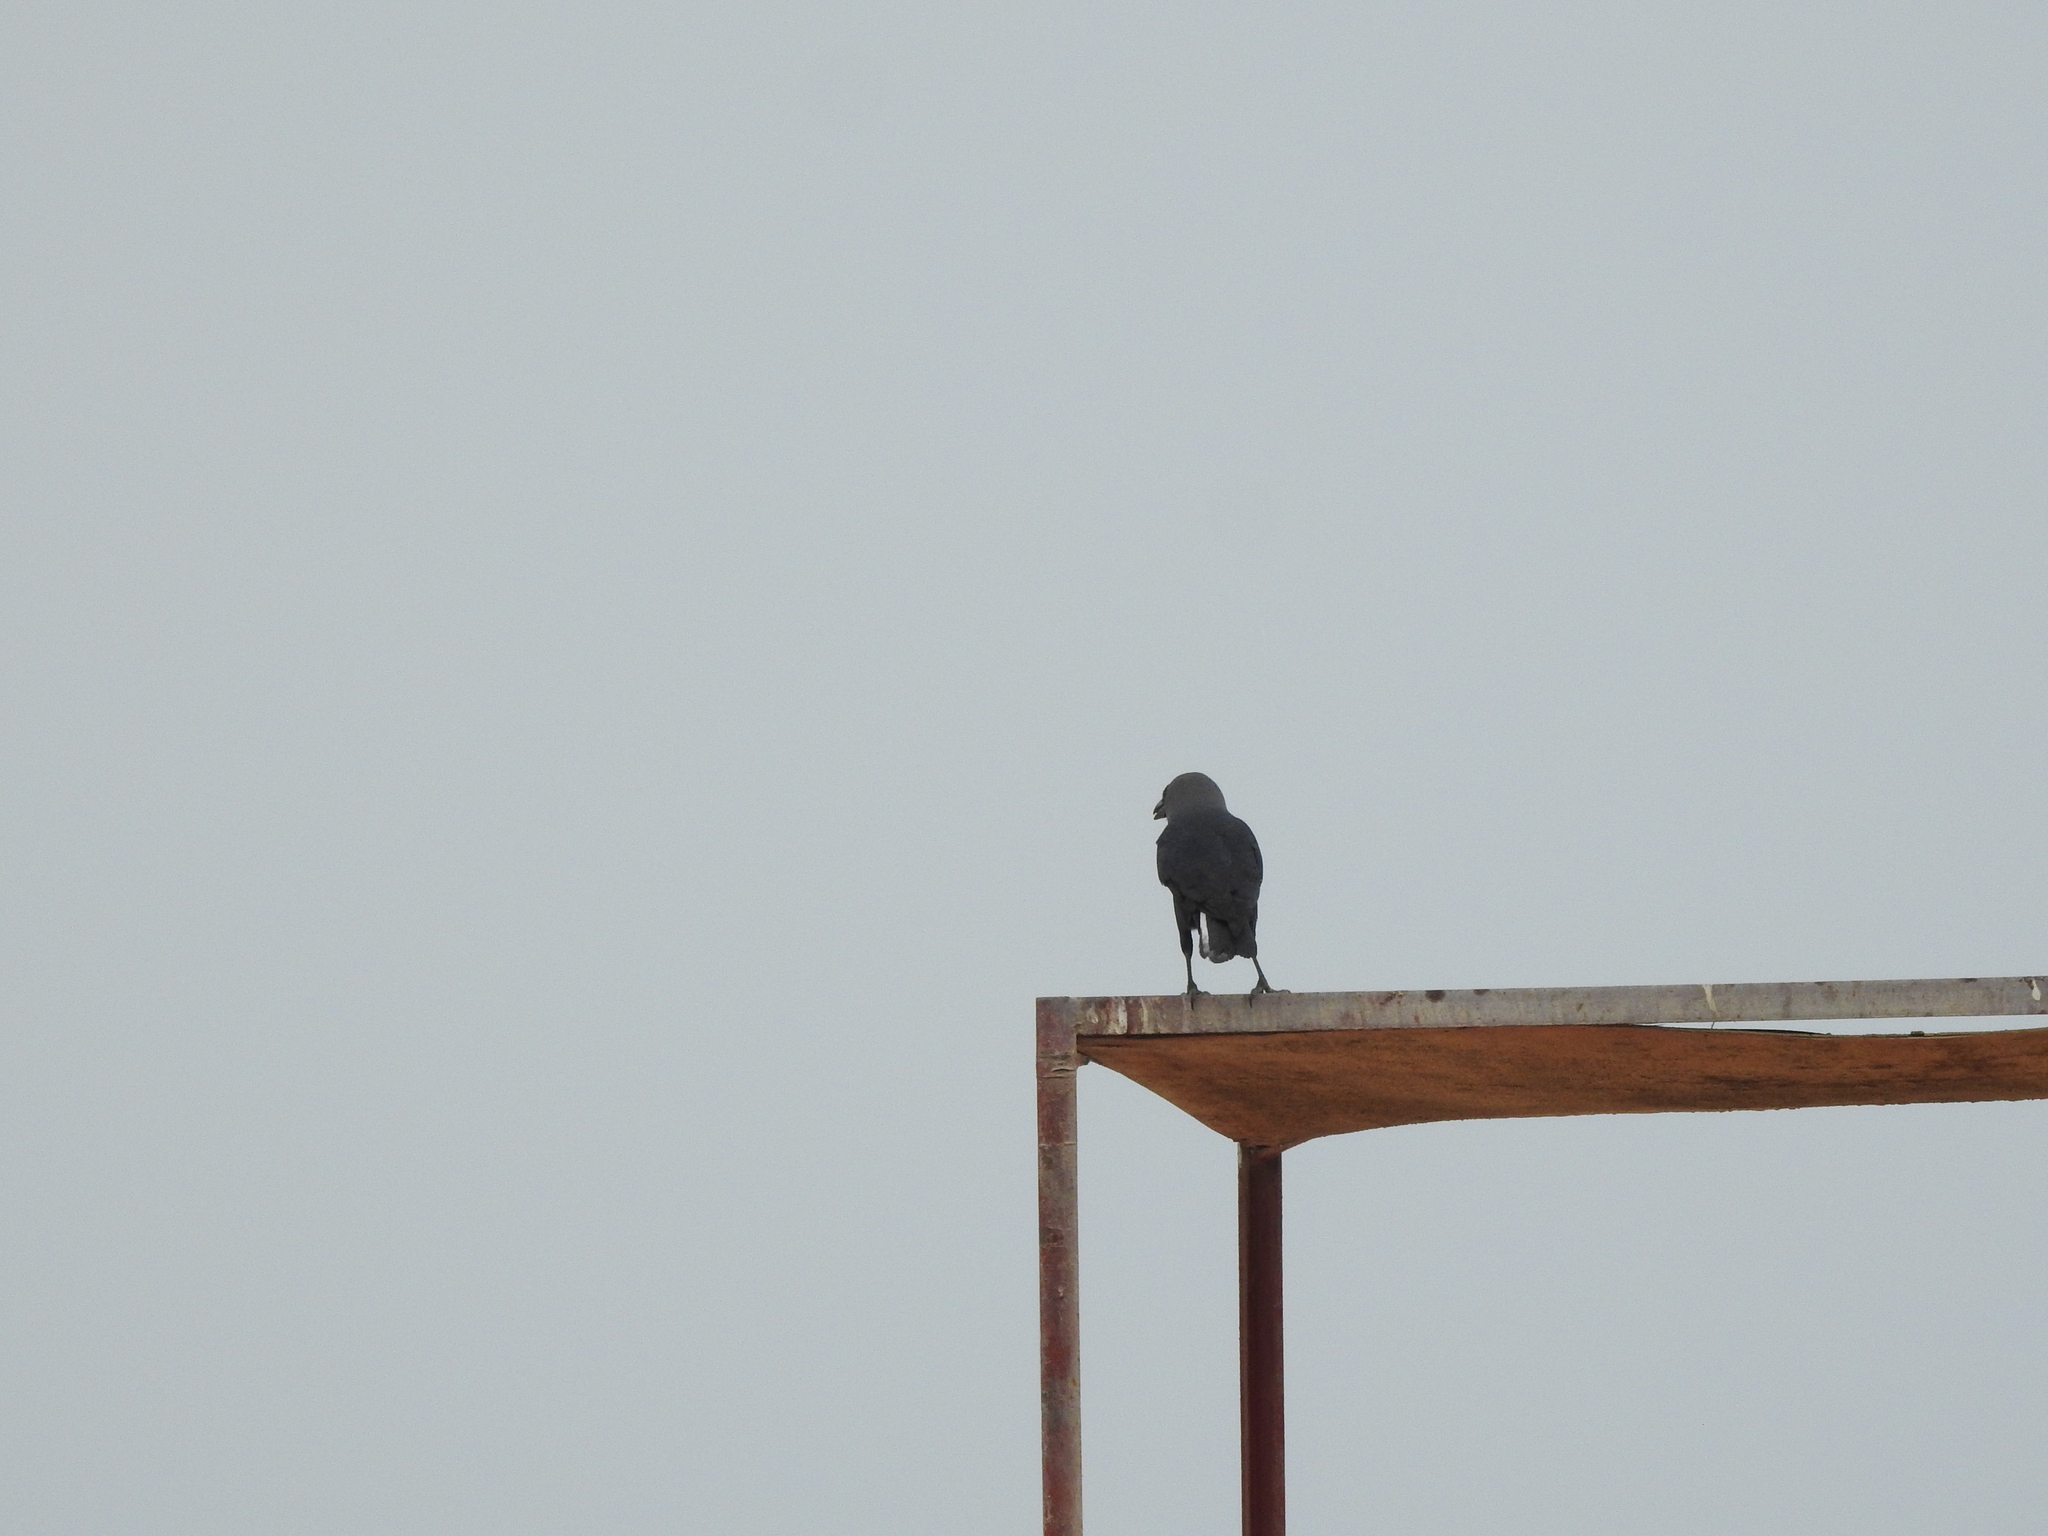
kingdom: Animalia
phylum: Chordata
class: Aves
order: Passeriformes
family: Corvidae
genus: Corvus
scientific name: Corvus splendens
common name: House crow
